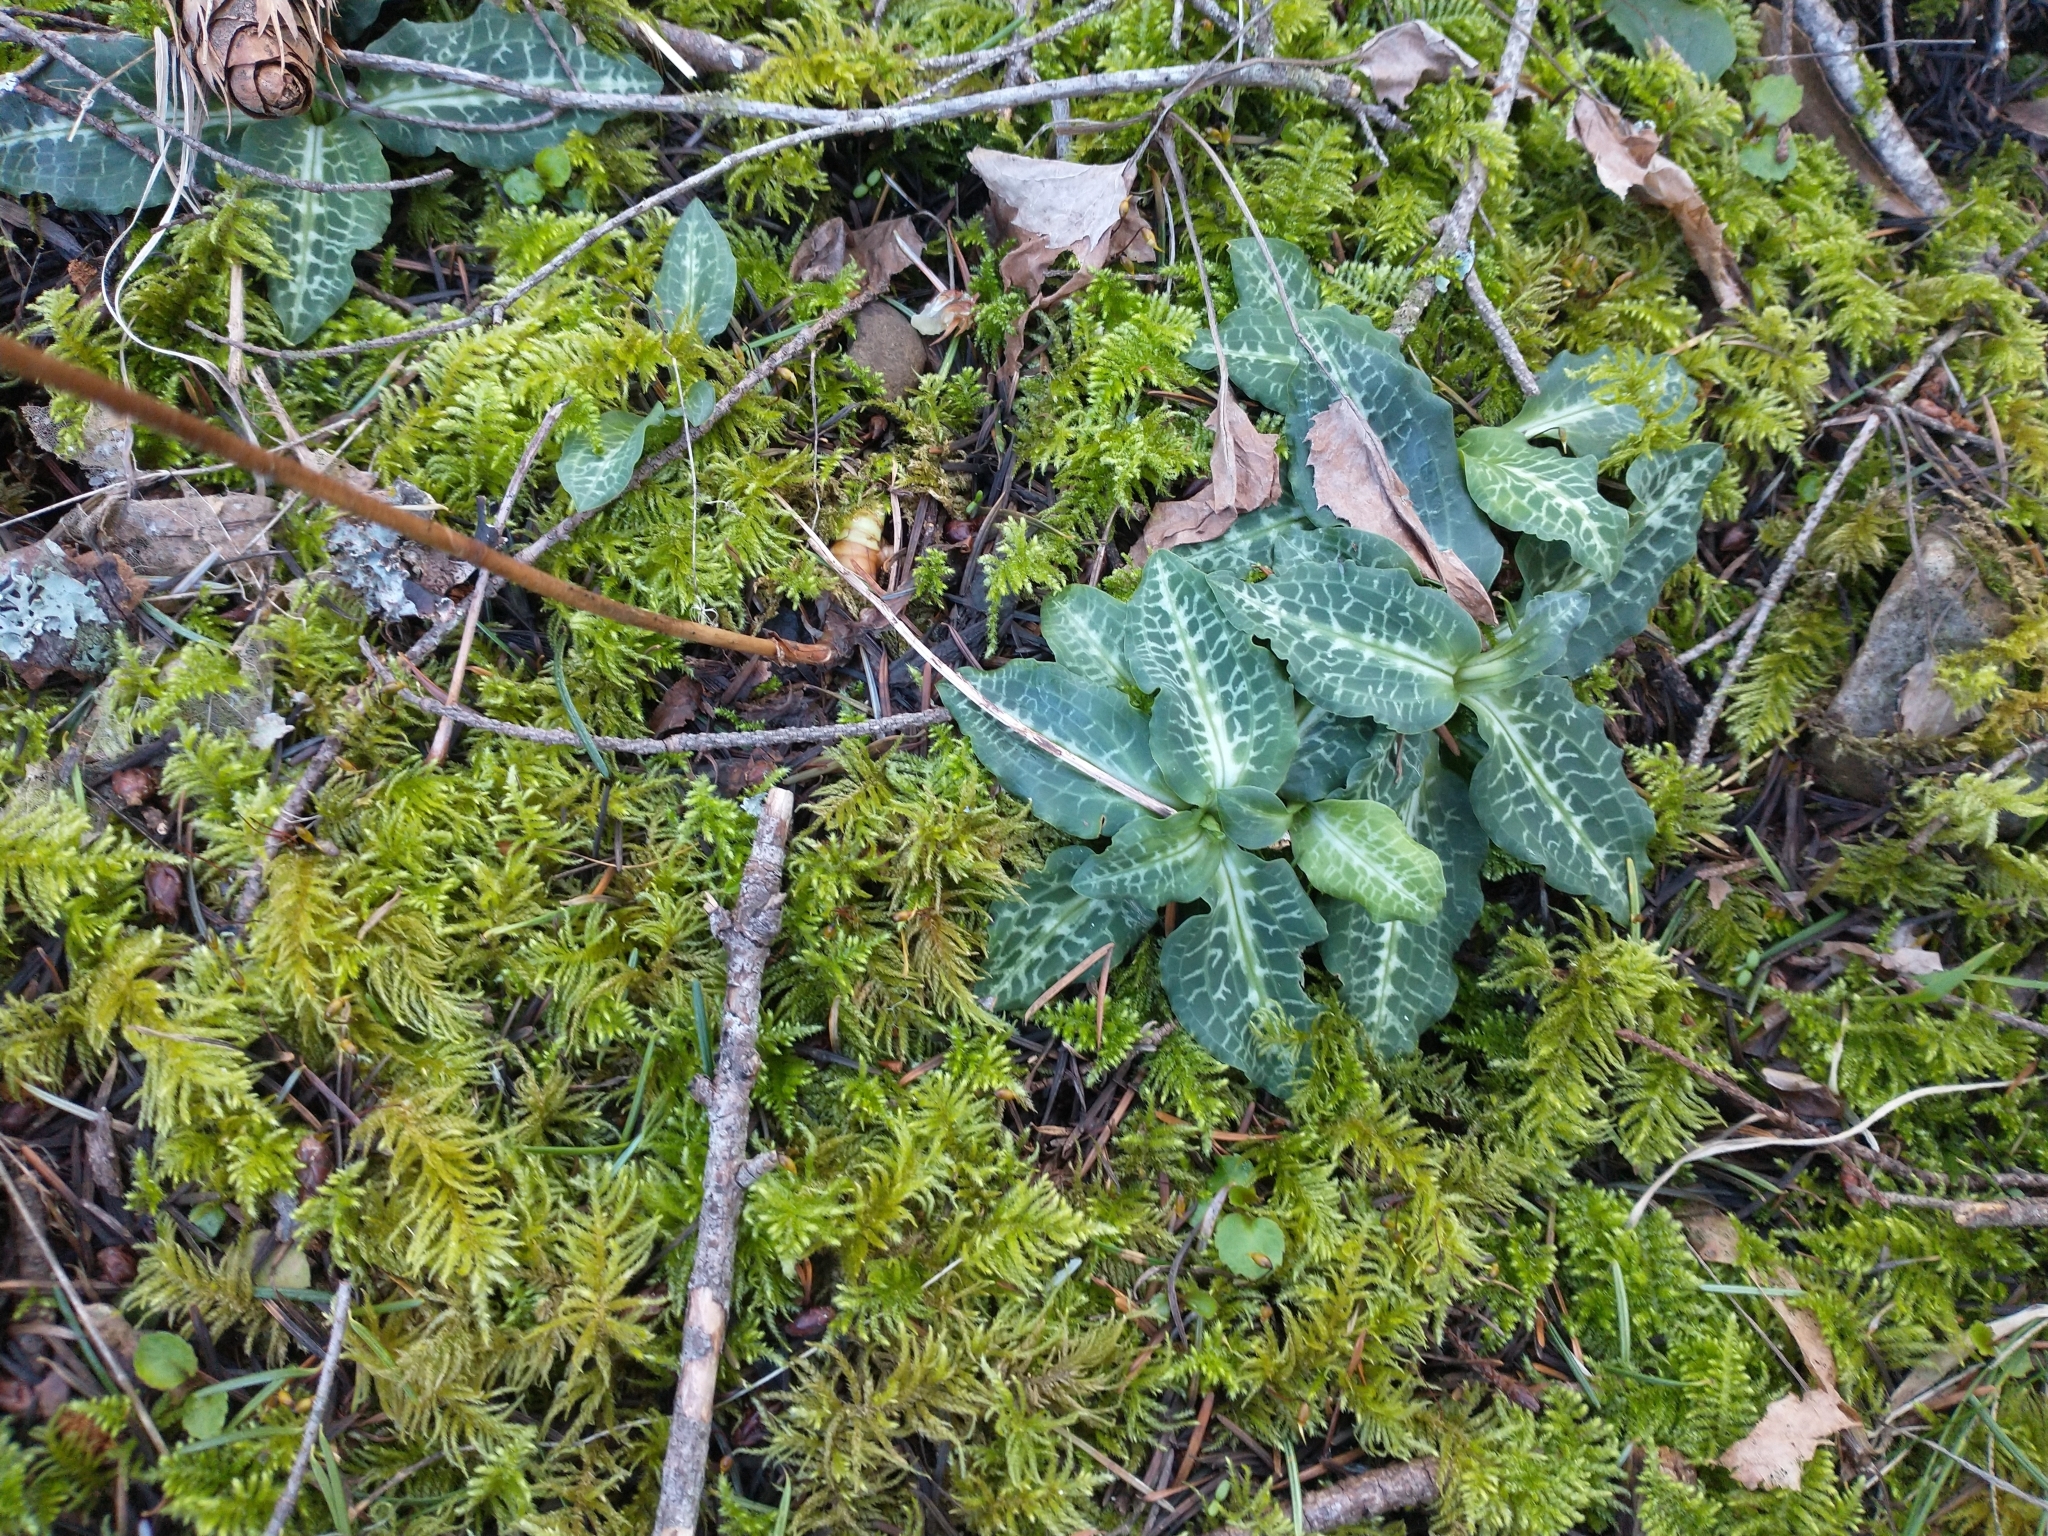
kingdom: Plantae
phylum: Tracheophyta
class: Liliopsida
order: Asparagales
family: Orchidaceae
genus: Goodyera
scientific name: Goodyera oblongifolia
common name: Giant rattlesnake-plantain
